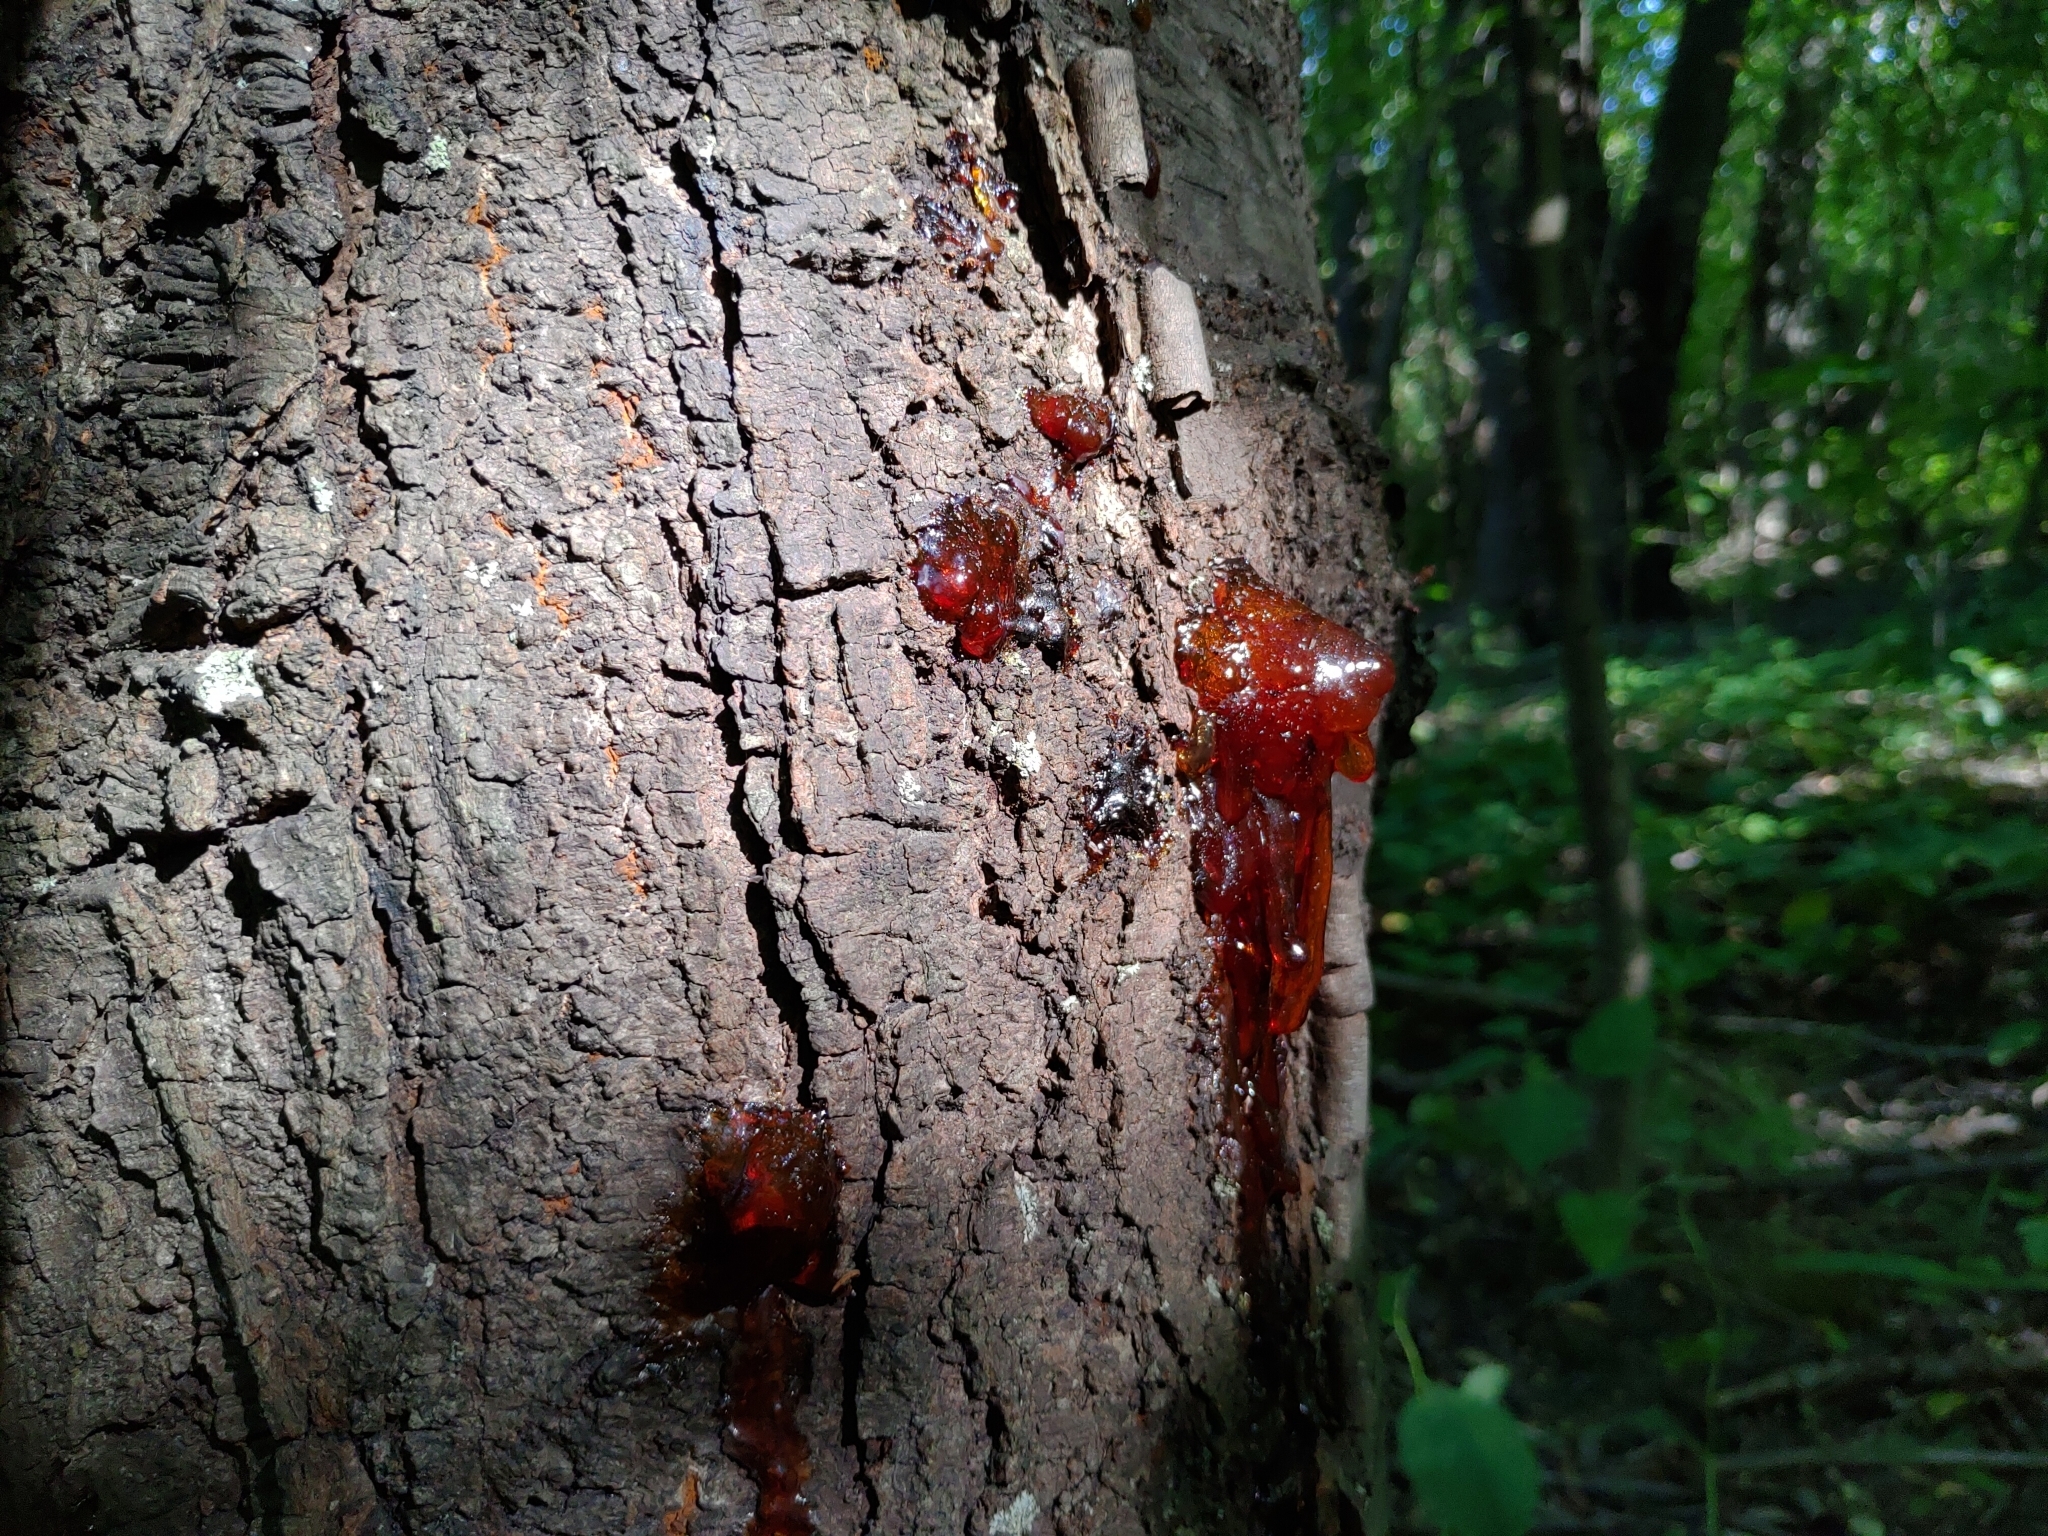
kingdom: Plantae
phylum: Tracheophyta
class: Magnoliopsida
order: Rosales
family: Rosaceae
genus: Prunus
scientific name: Prunus avium
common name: Sweet cherry
